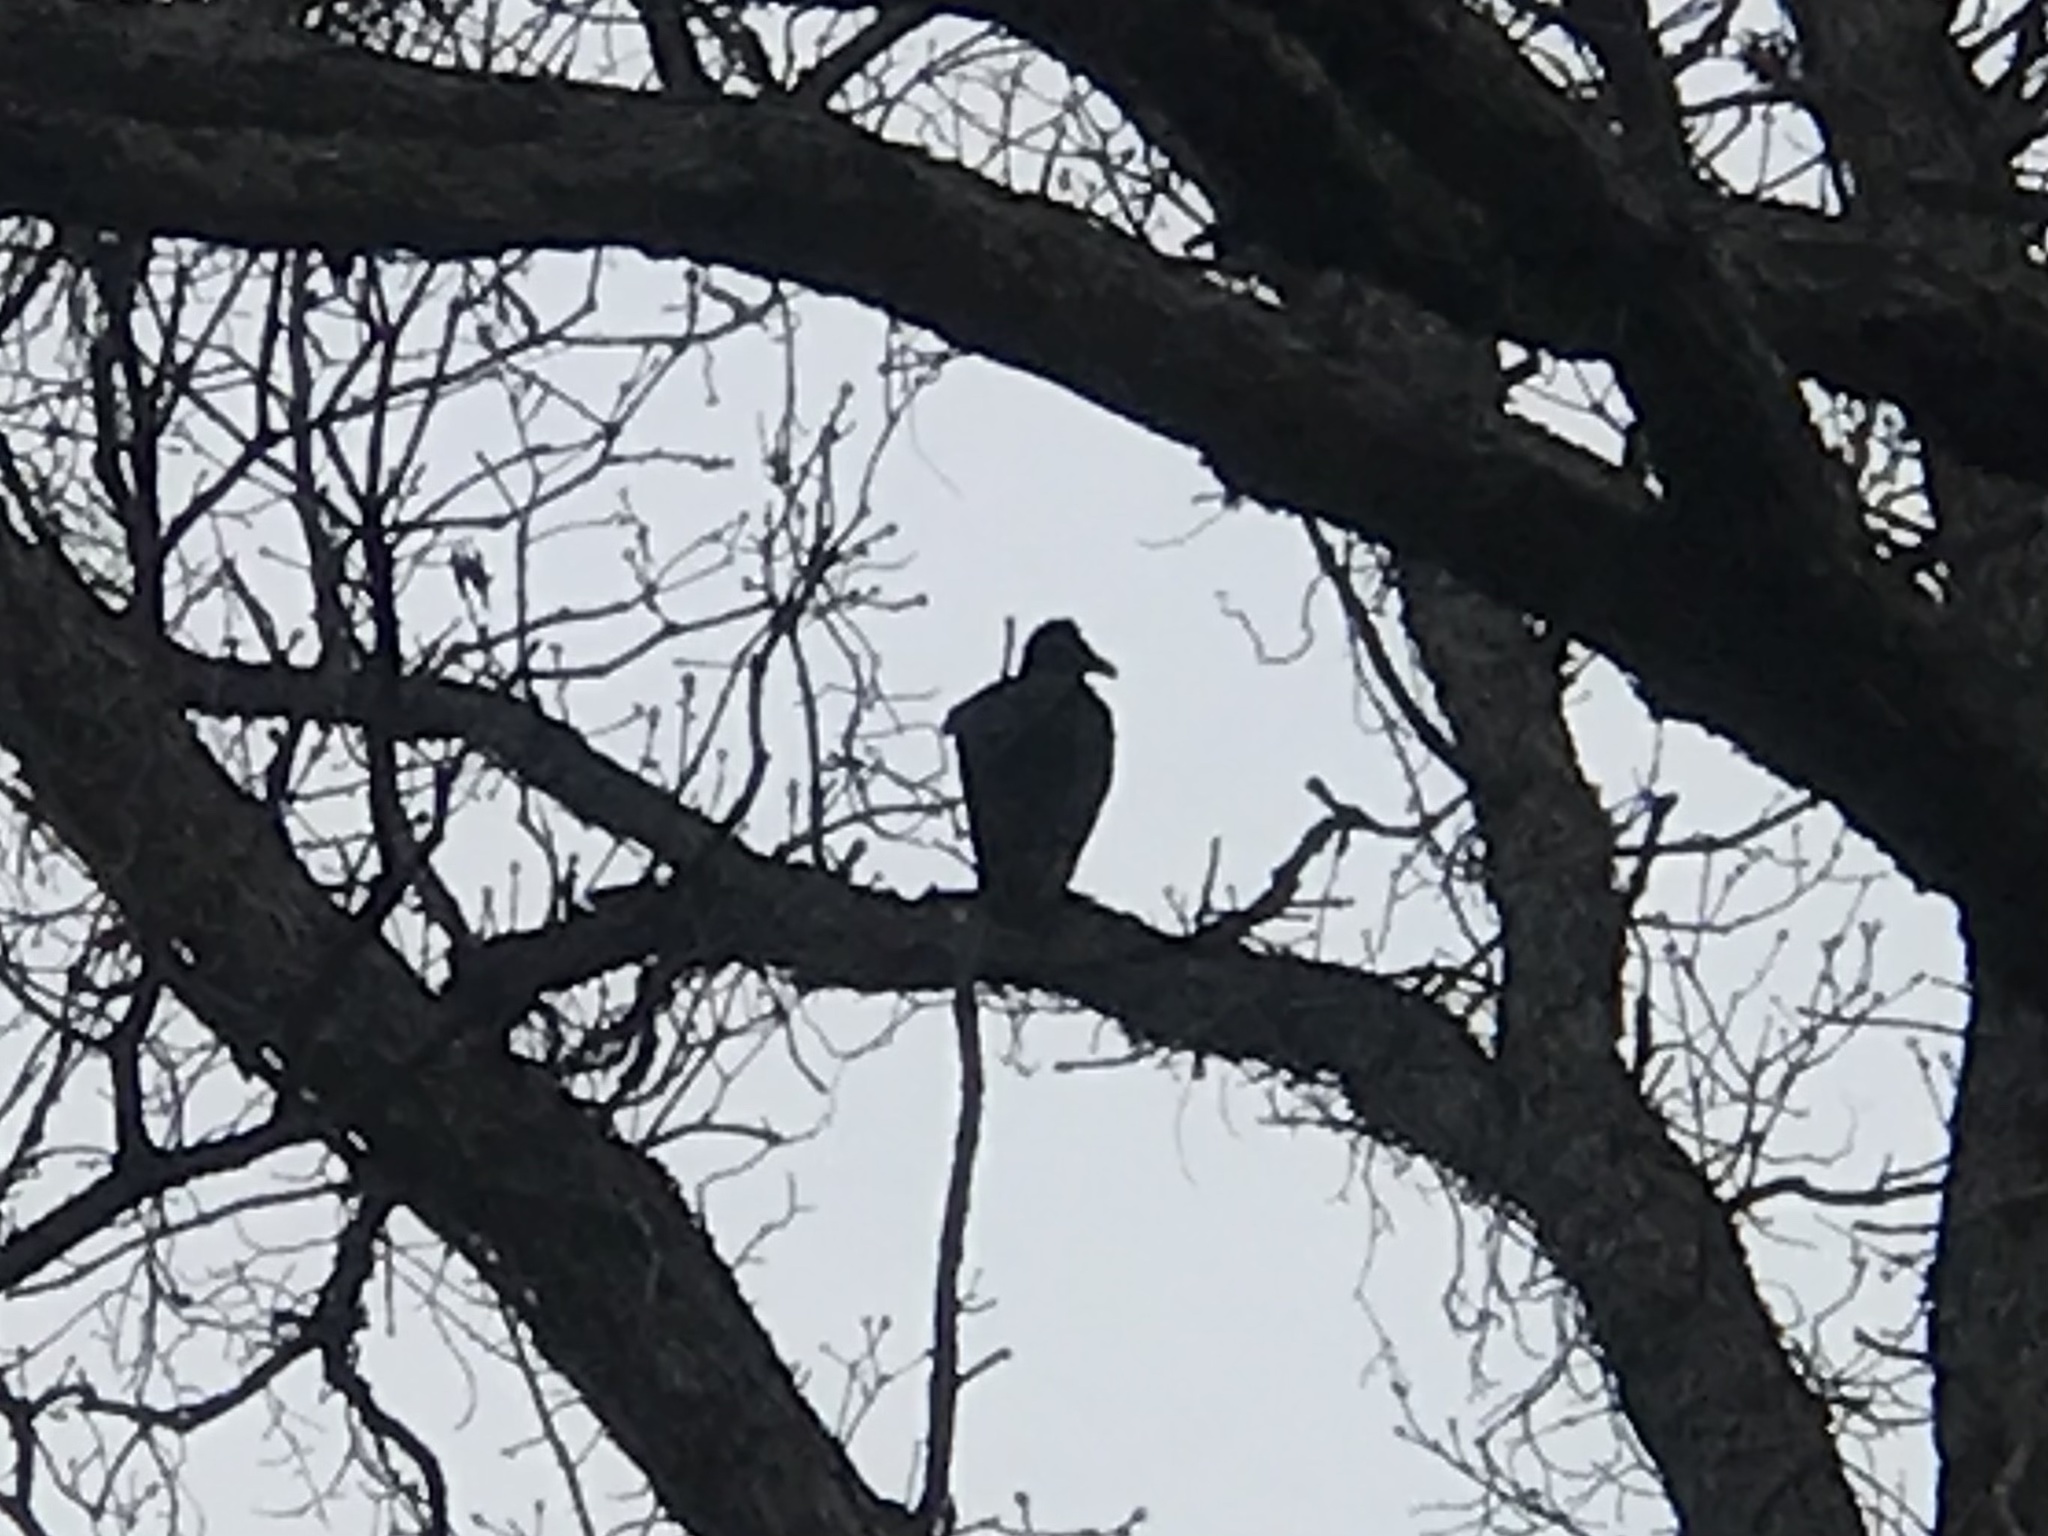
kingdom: Animalia
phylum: Chordata
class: Aves
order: Accipitriformes
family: Cathartidae
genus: Cathartes
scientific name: Cathartes aura
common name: Turkey vulture
